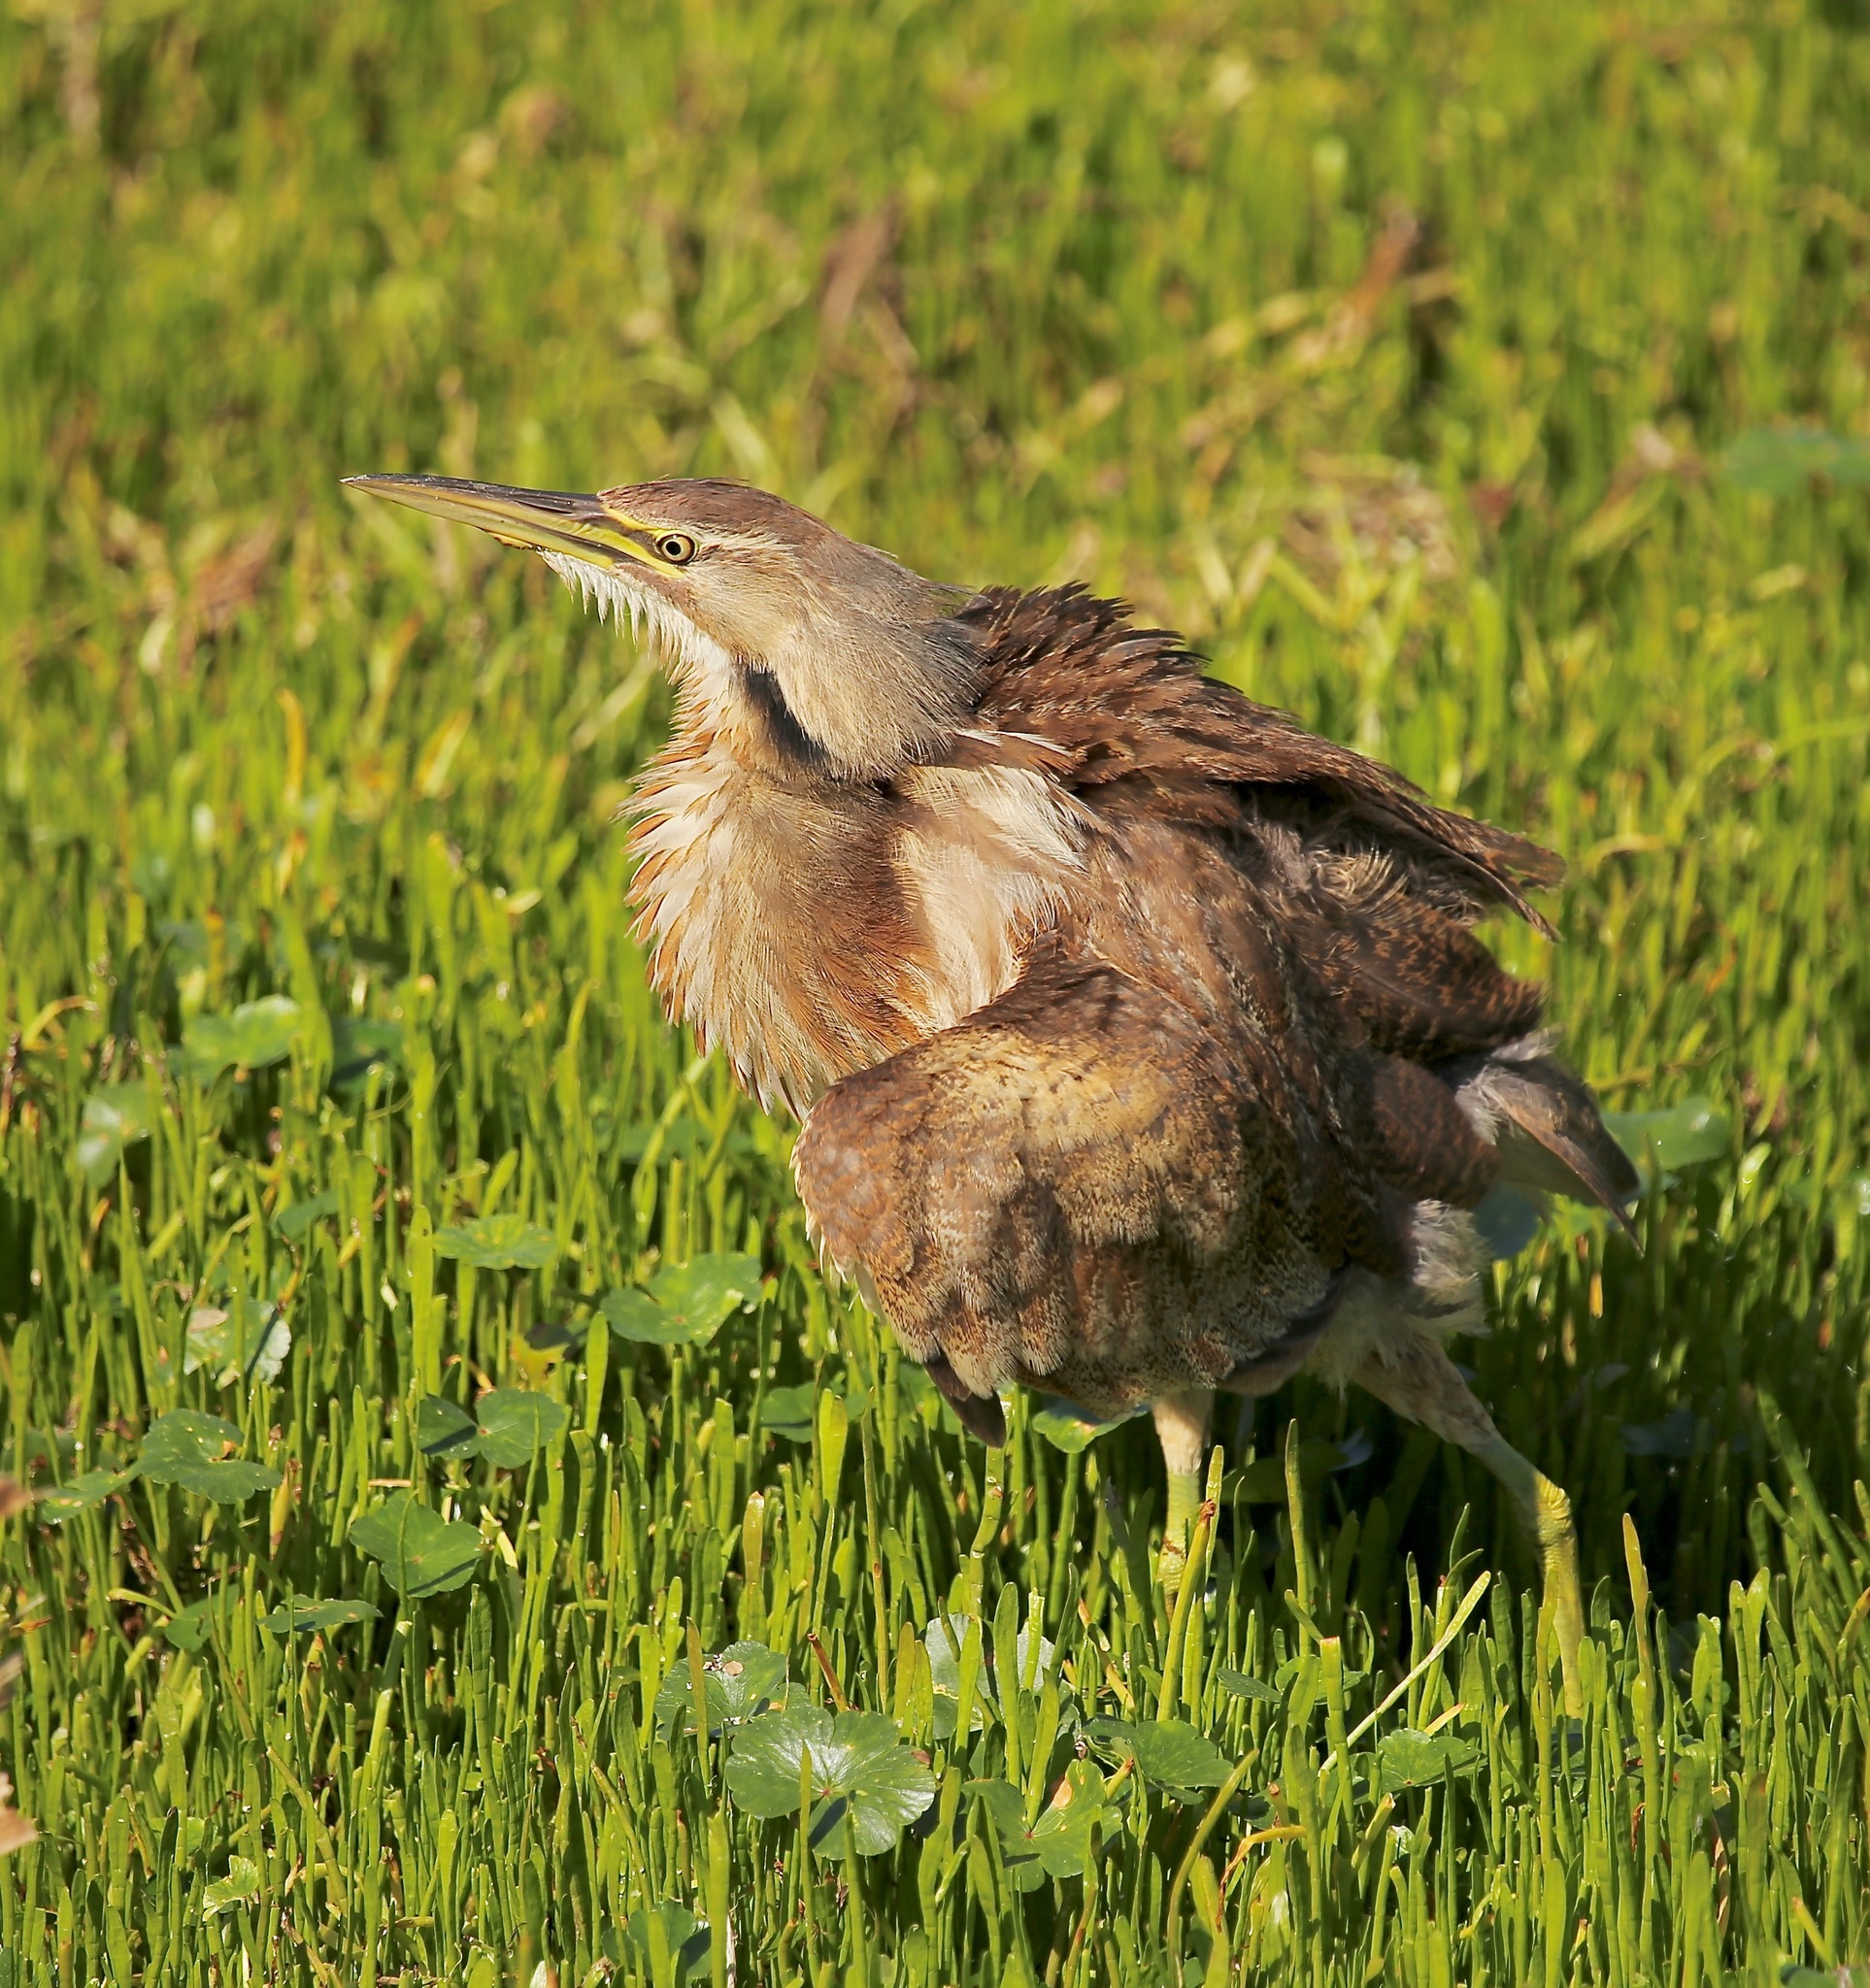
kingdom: Animalia
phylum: Chordata
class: Aves
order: Pelecaniformes
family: Ardeidae
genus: Botaurus
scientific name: Botaurus lentiginosus
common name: American bittern
